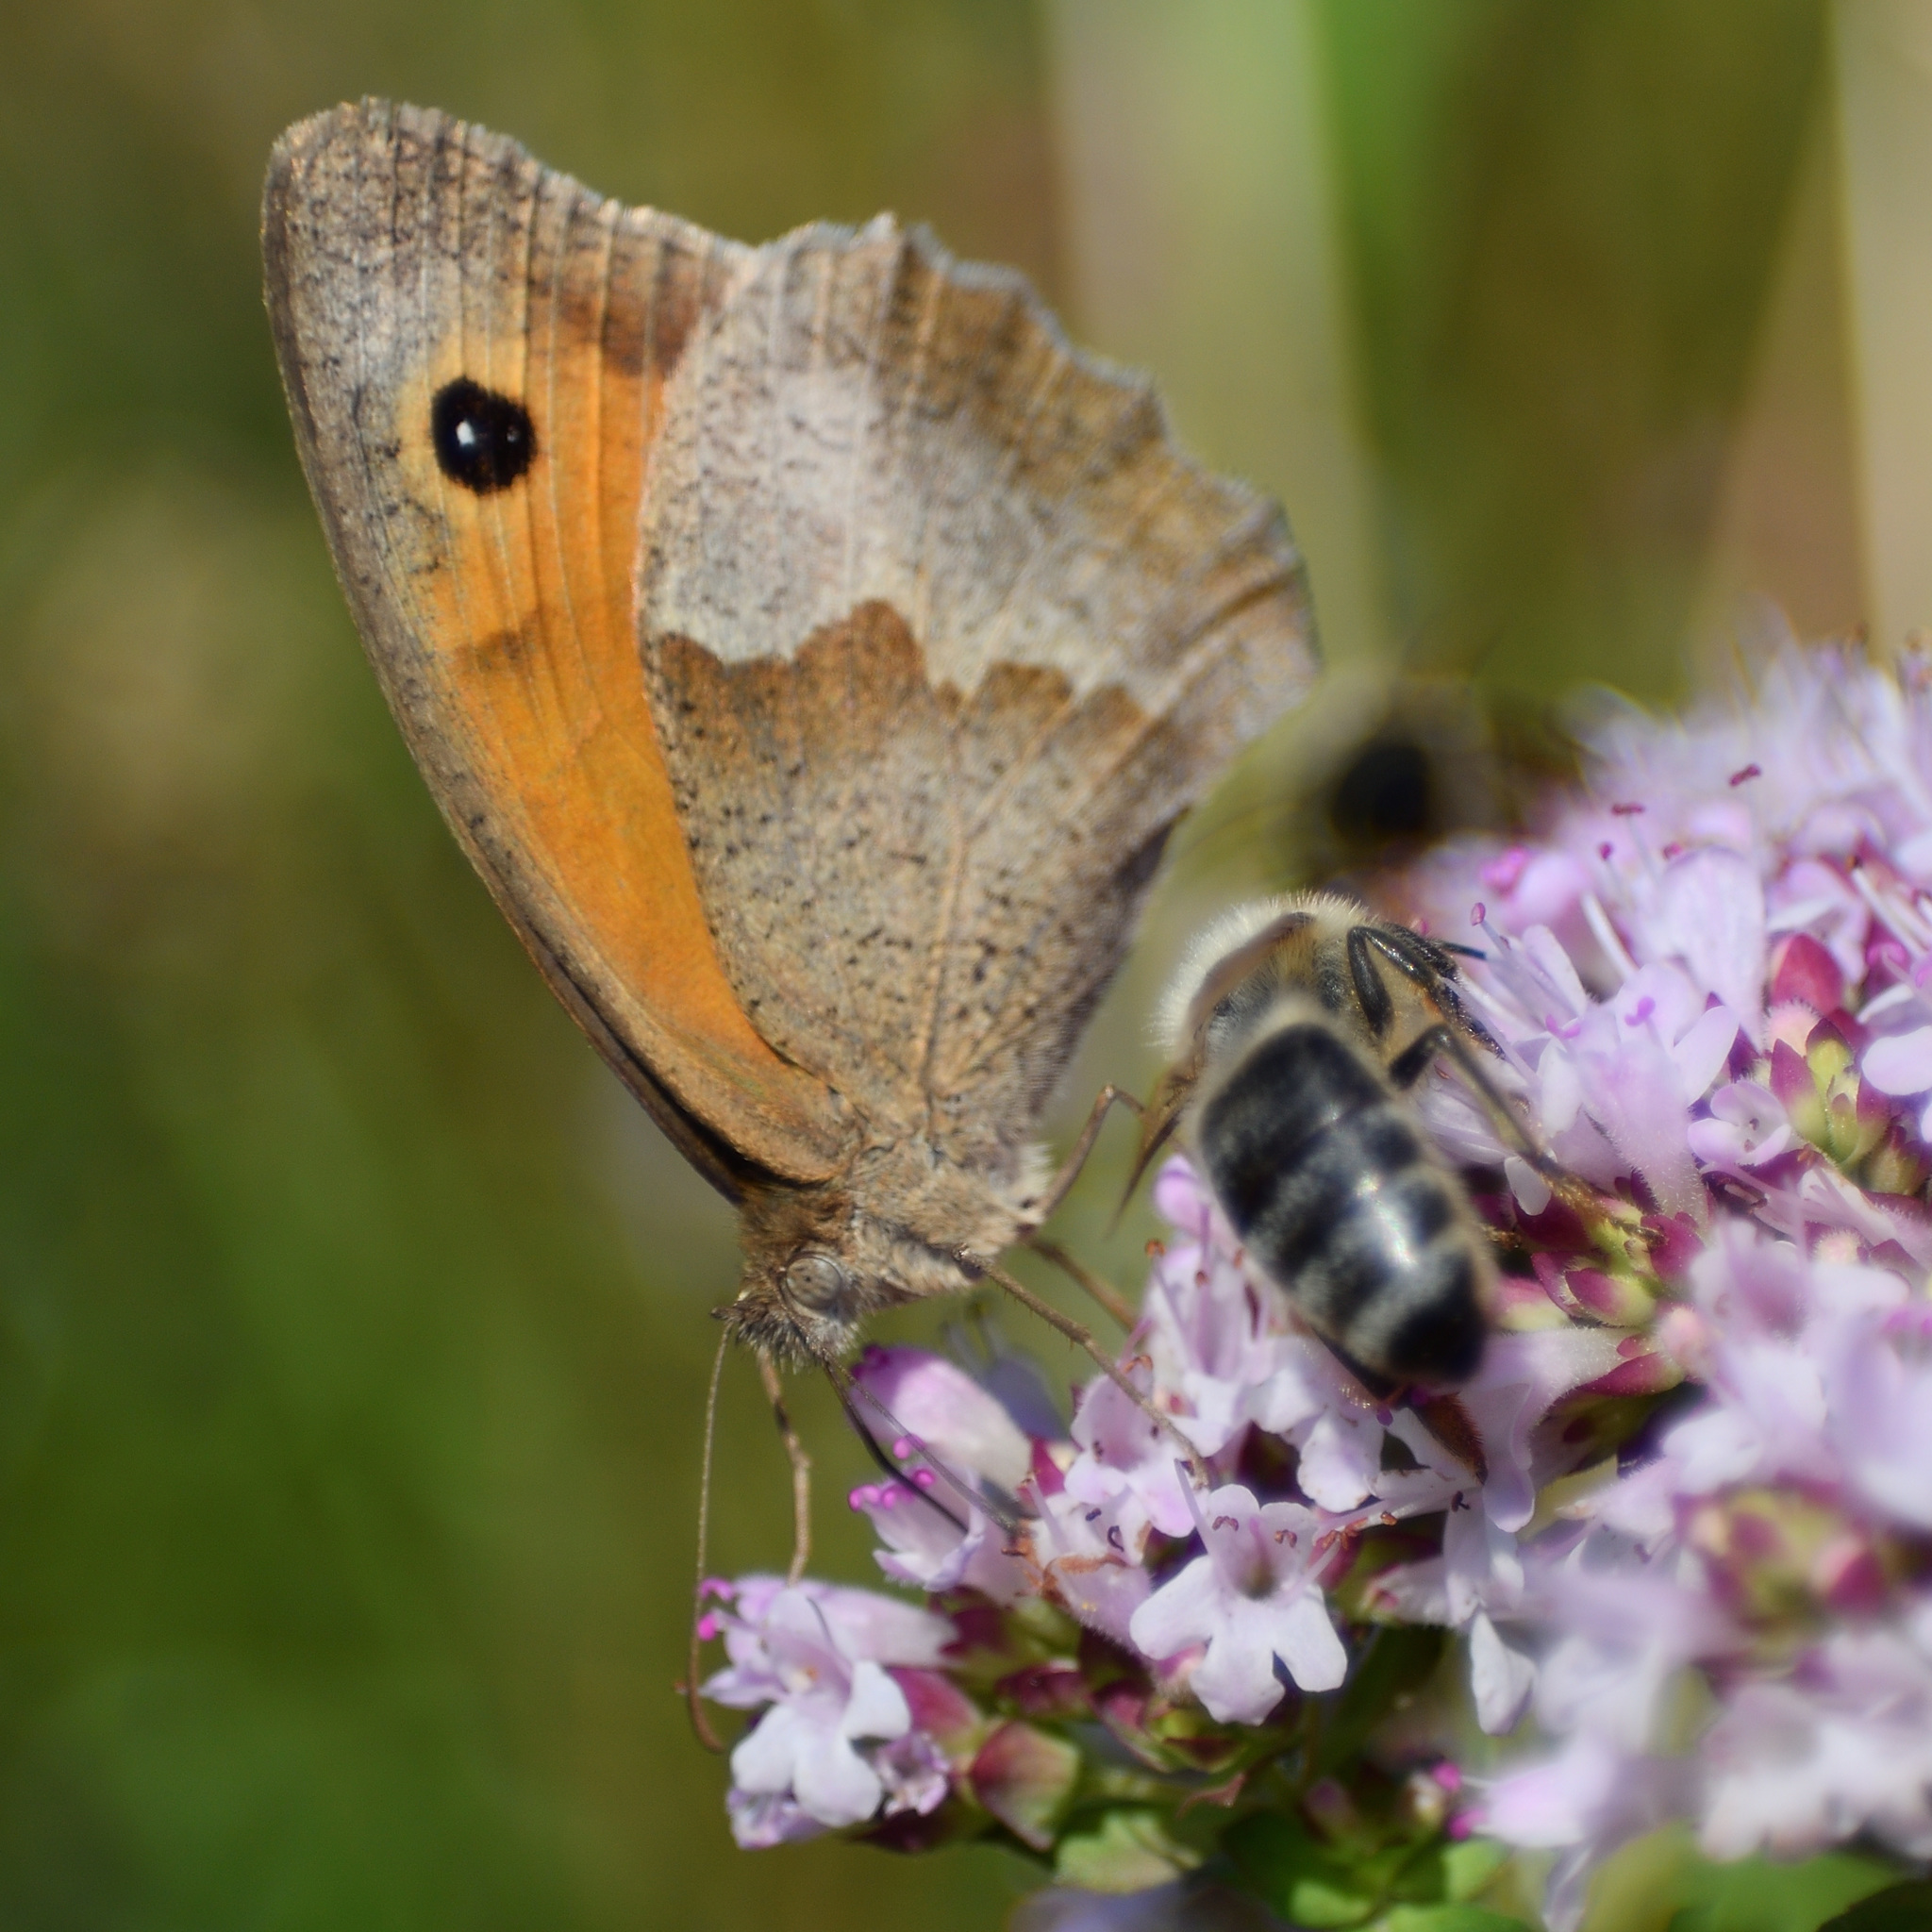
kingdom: Animalia
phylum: Arthropoda
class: Insecta
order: Lepidoptera
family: Nymphalidae
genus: Maniola
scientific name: Maniola jurtina
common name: Meadow brown
